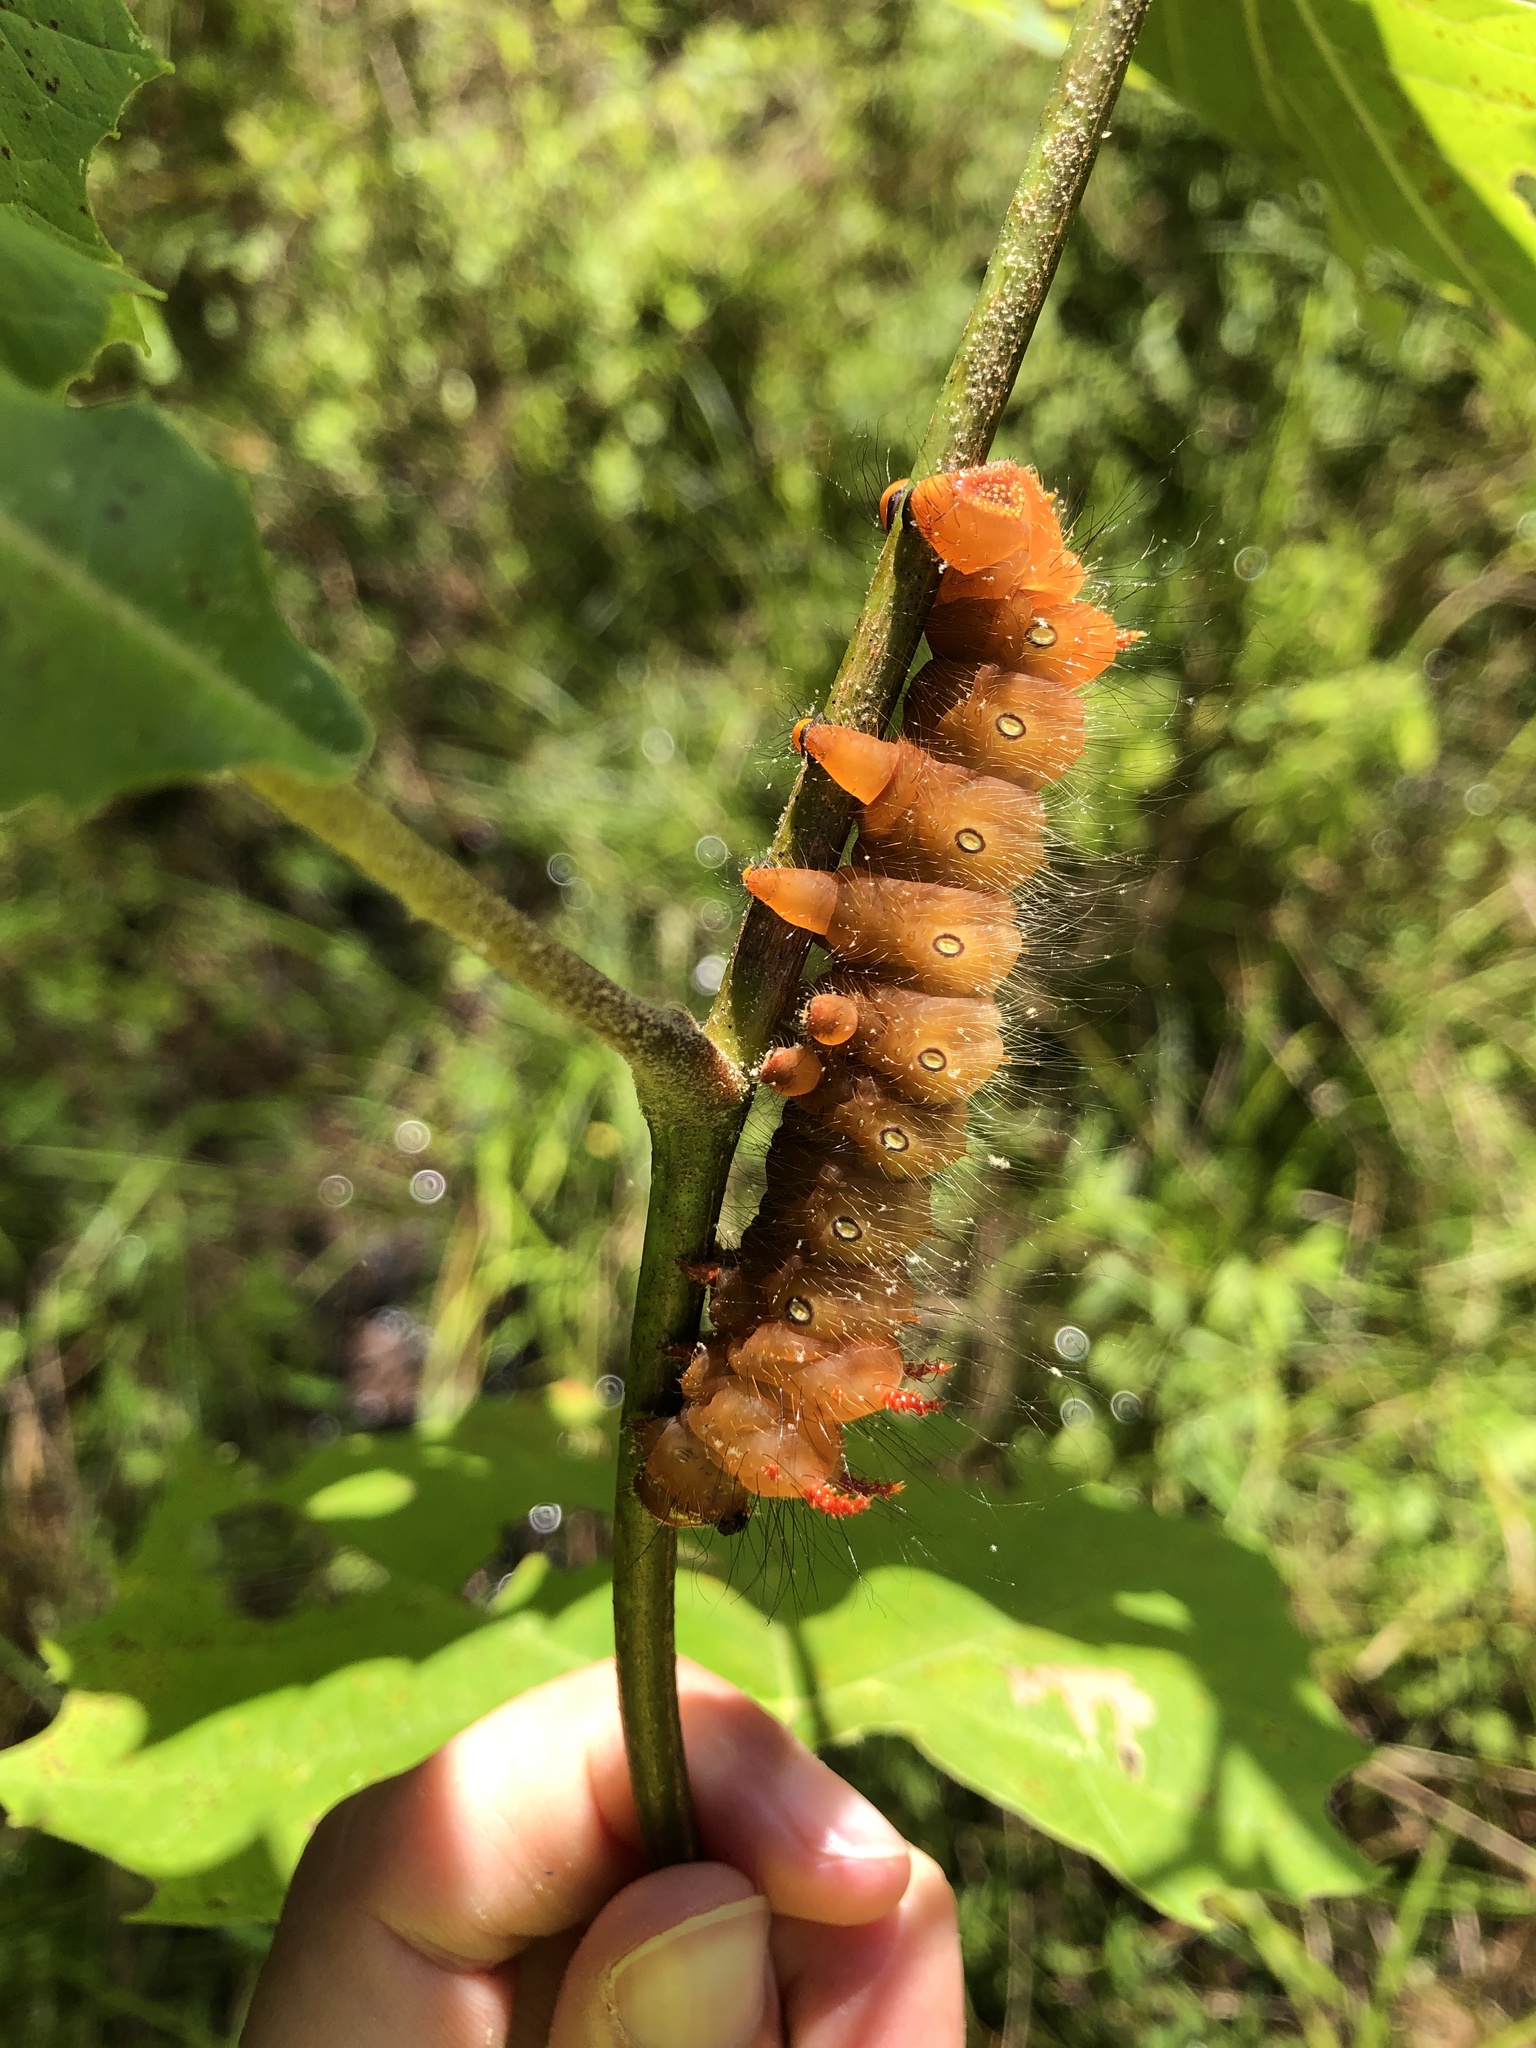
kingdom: Animalia
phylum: Arthropoda
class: Insecta
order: Lepidoptera
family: Saturniidae
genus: Eacles
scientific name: Eacles imperialis
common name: Imperial moth
